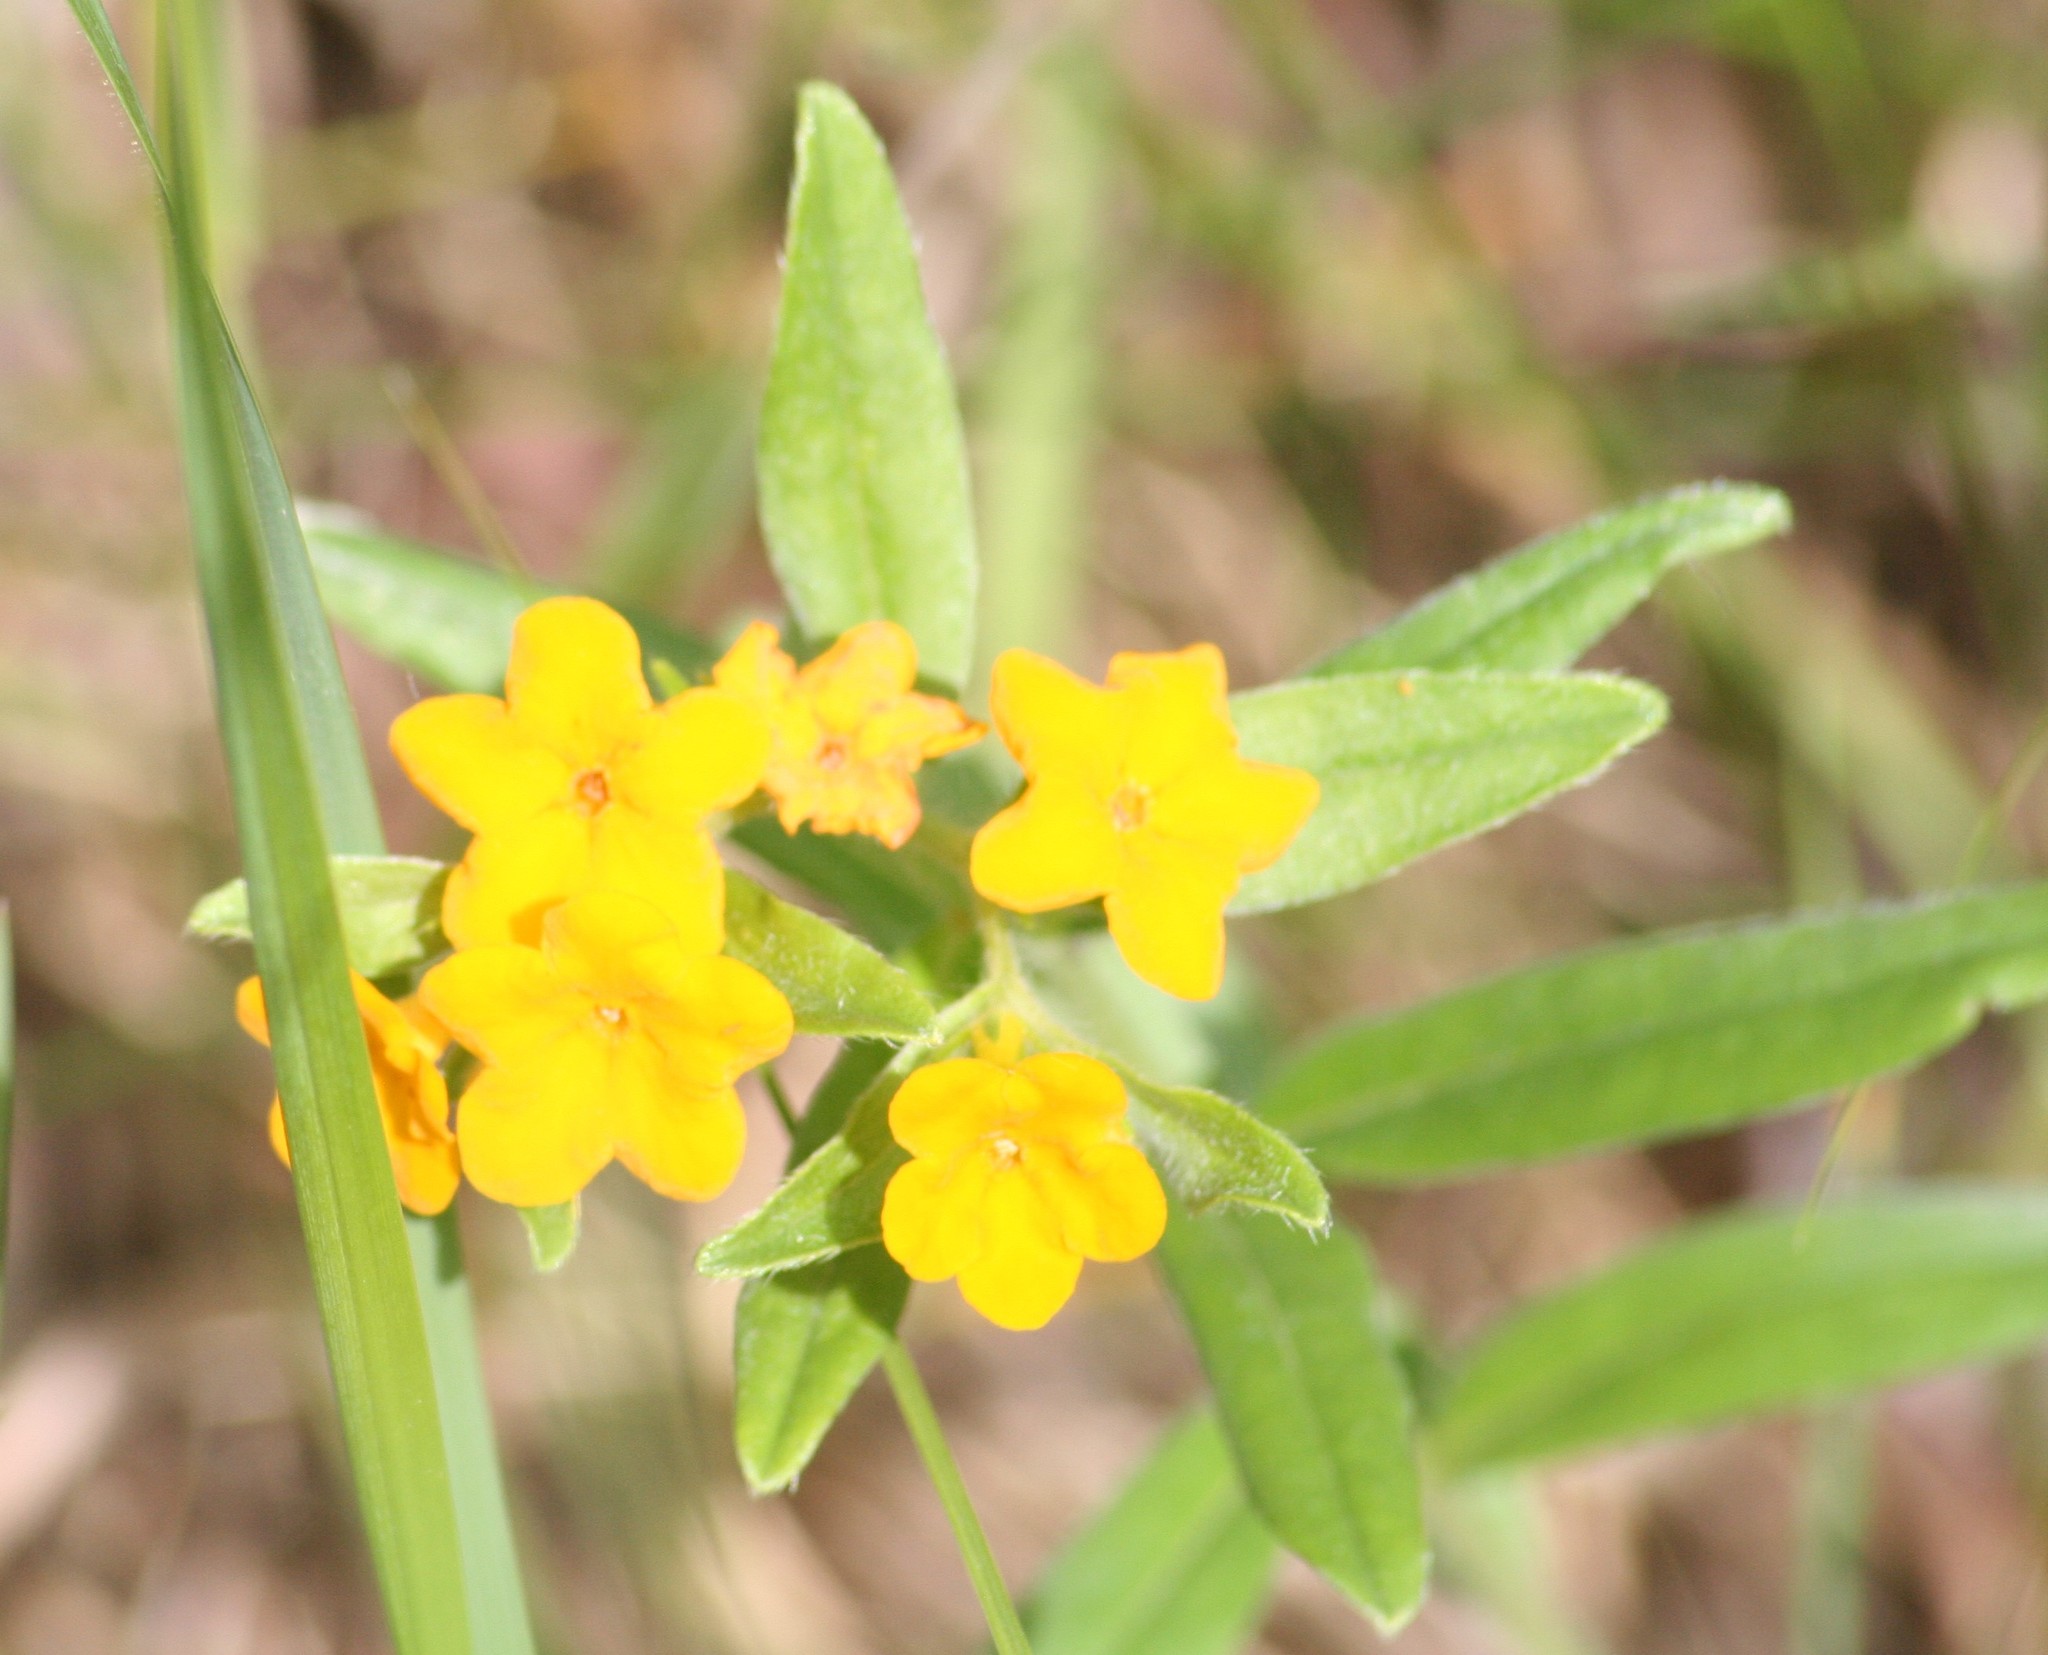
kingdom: Plantae
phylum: Tracheophyta
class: Magnoliopsida
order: Boraginales
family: Boraginaceae
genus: Lithospermum
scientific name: Lithospermum canescens
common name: Hoary puccoon
